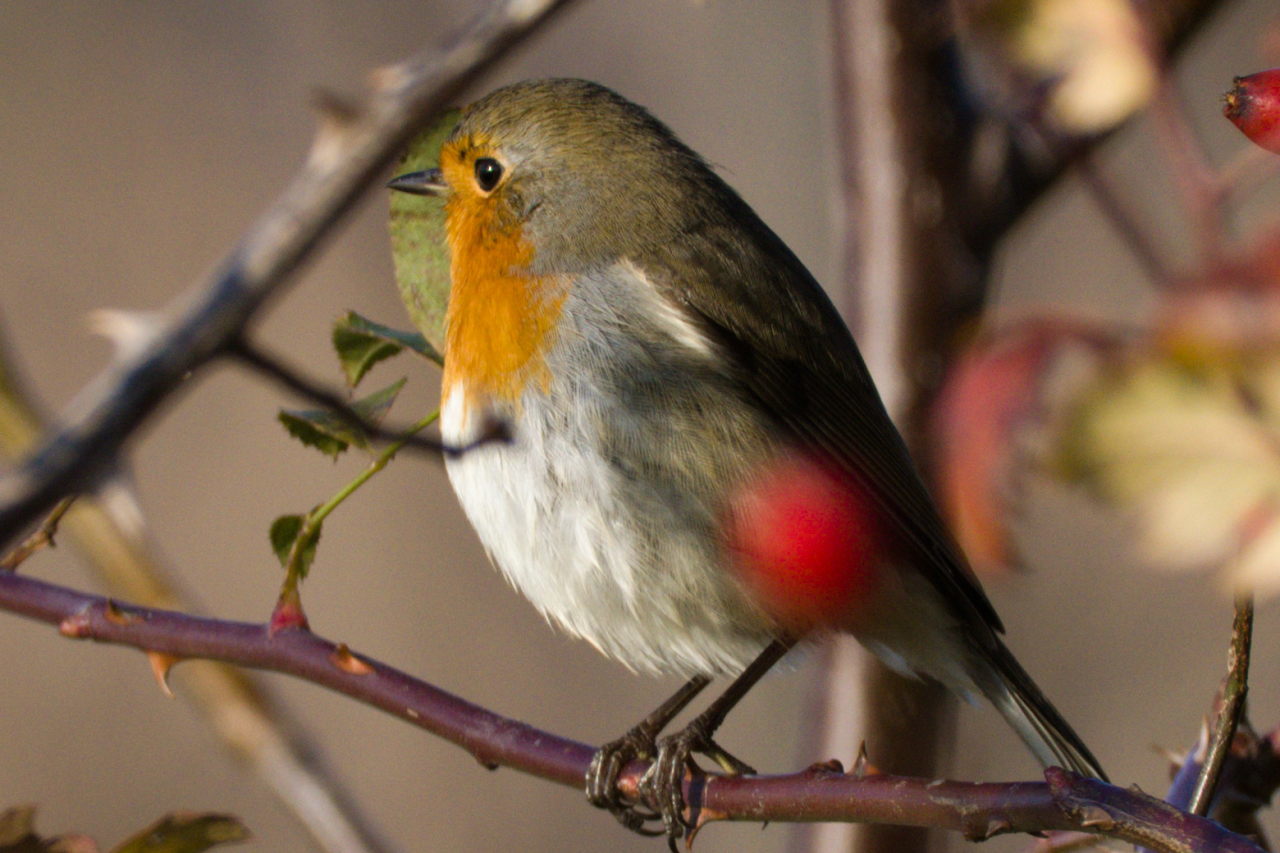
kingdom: Animalia
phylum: Chordata
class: Aves
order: Passeriformes
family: Muscicapidae
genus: Erithacus
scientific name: Erithacus rubecula
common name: European robin
